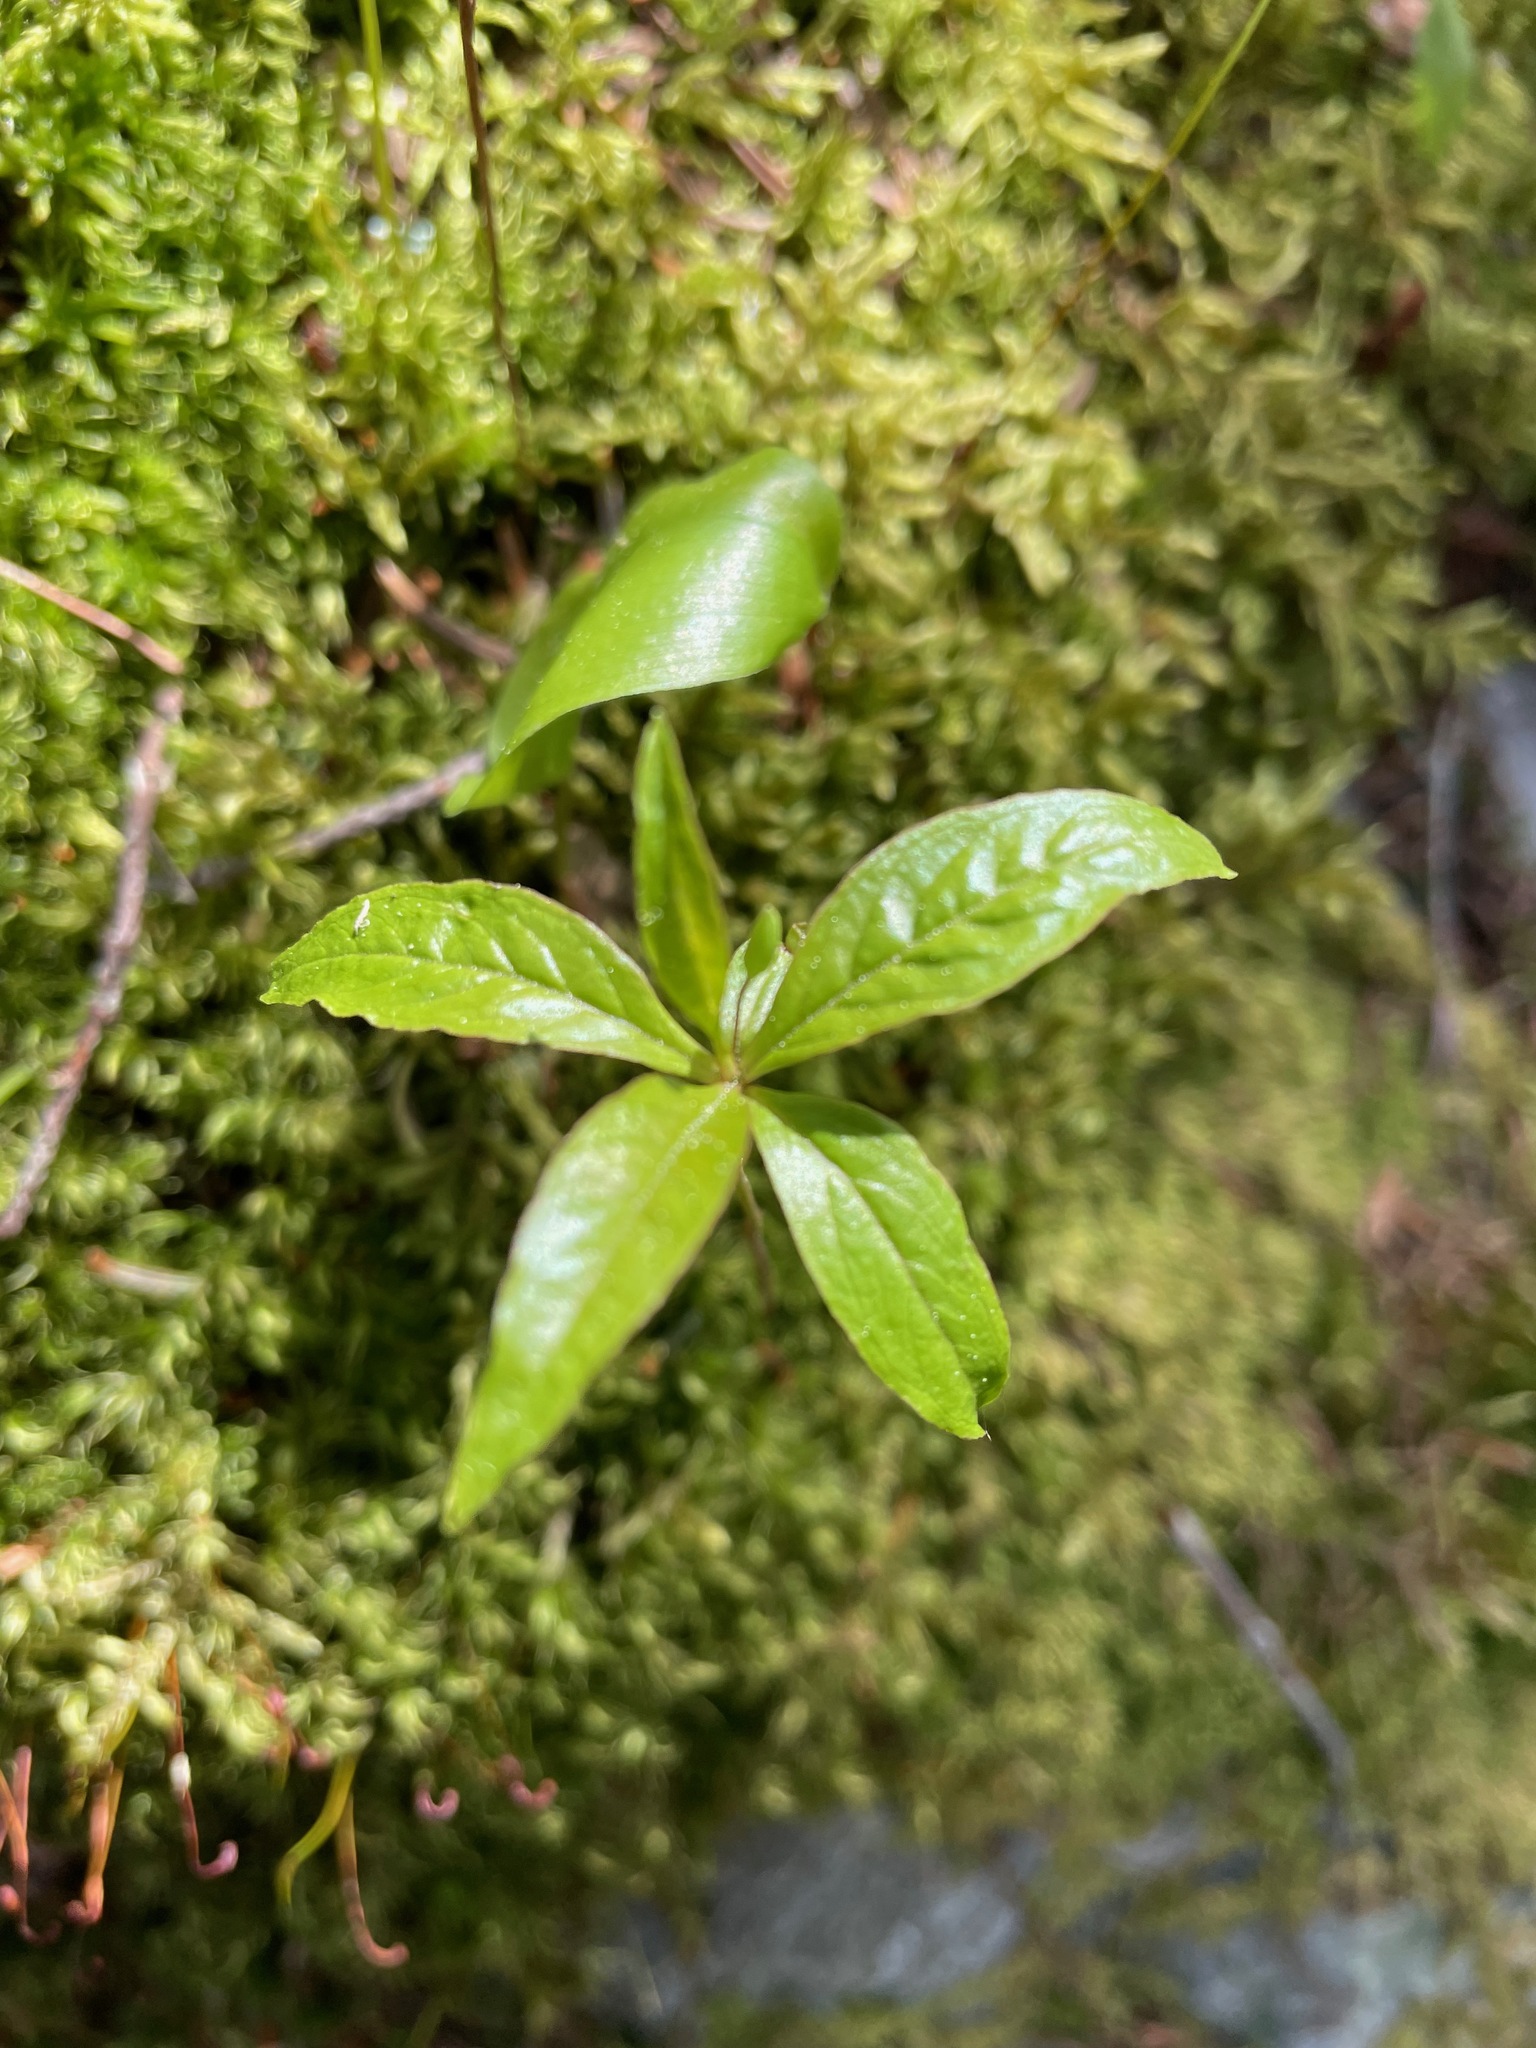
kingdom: Plantae
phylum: Tracheophyta
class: Magnoliopsida
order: Ericales
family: Primulaceae
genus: Lysimachia
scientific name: Lysimachia borealis
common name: American starflower
